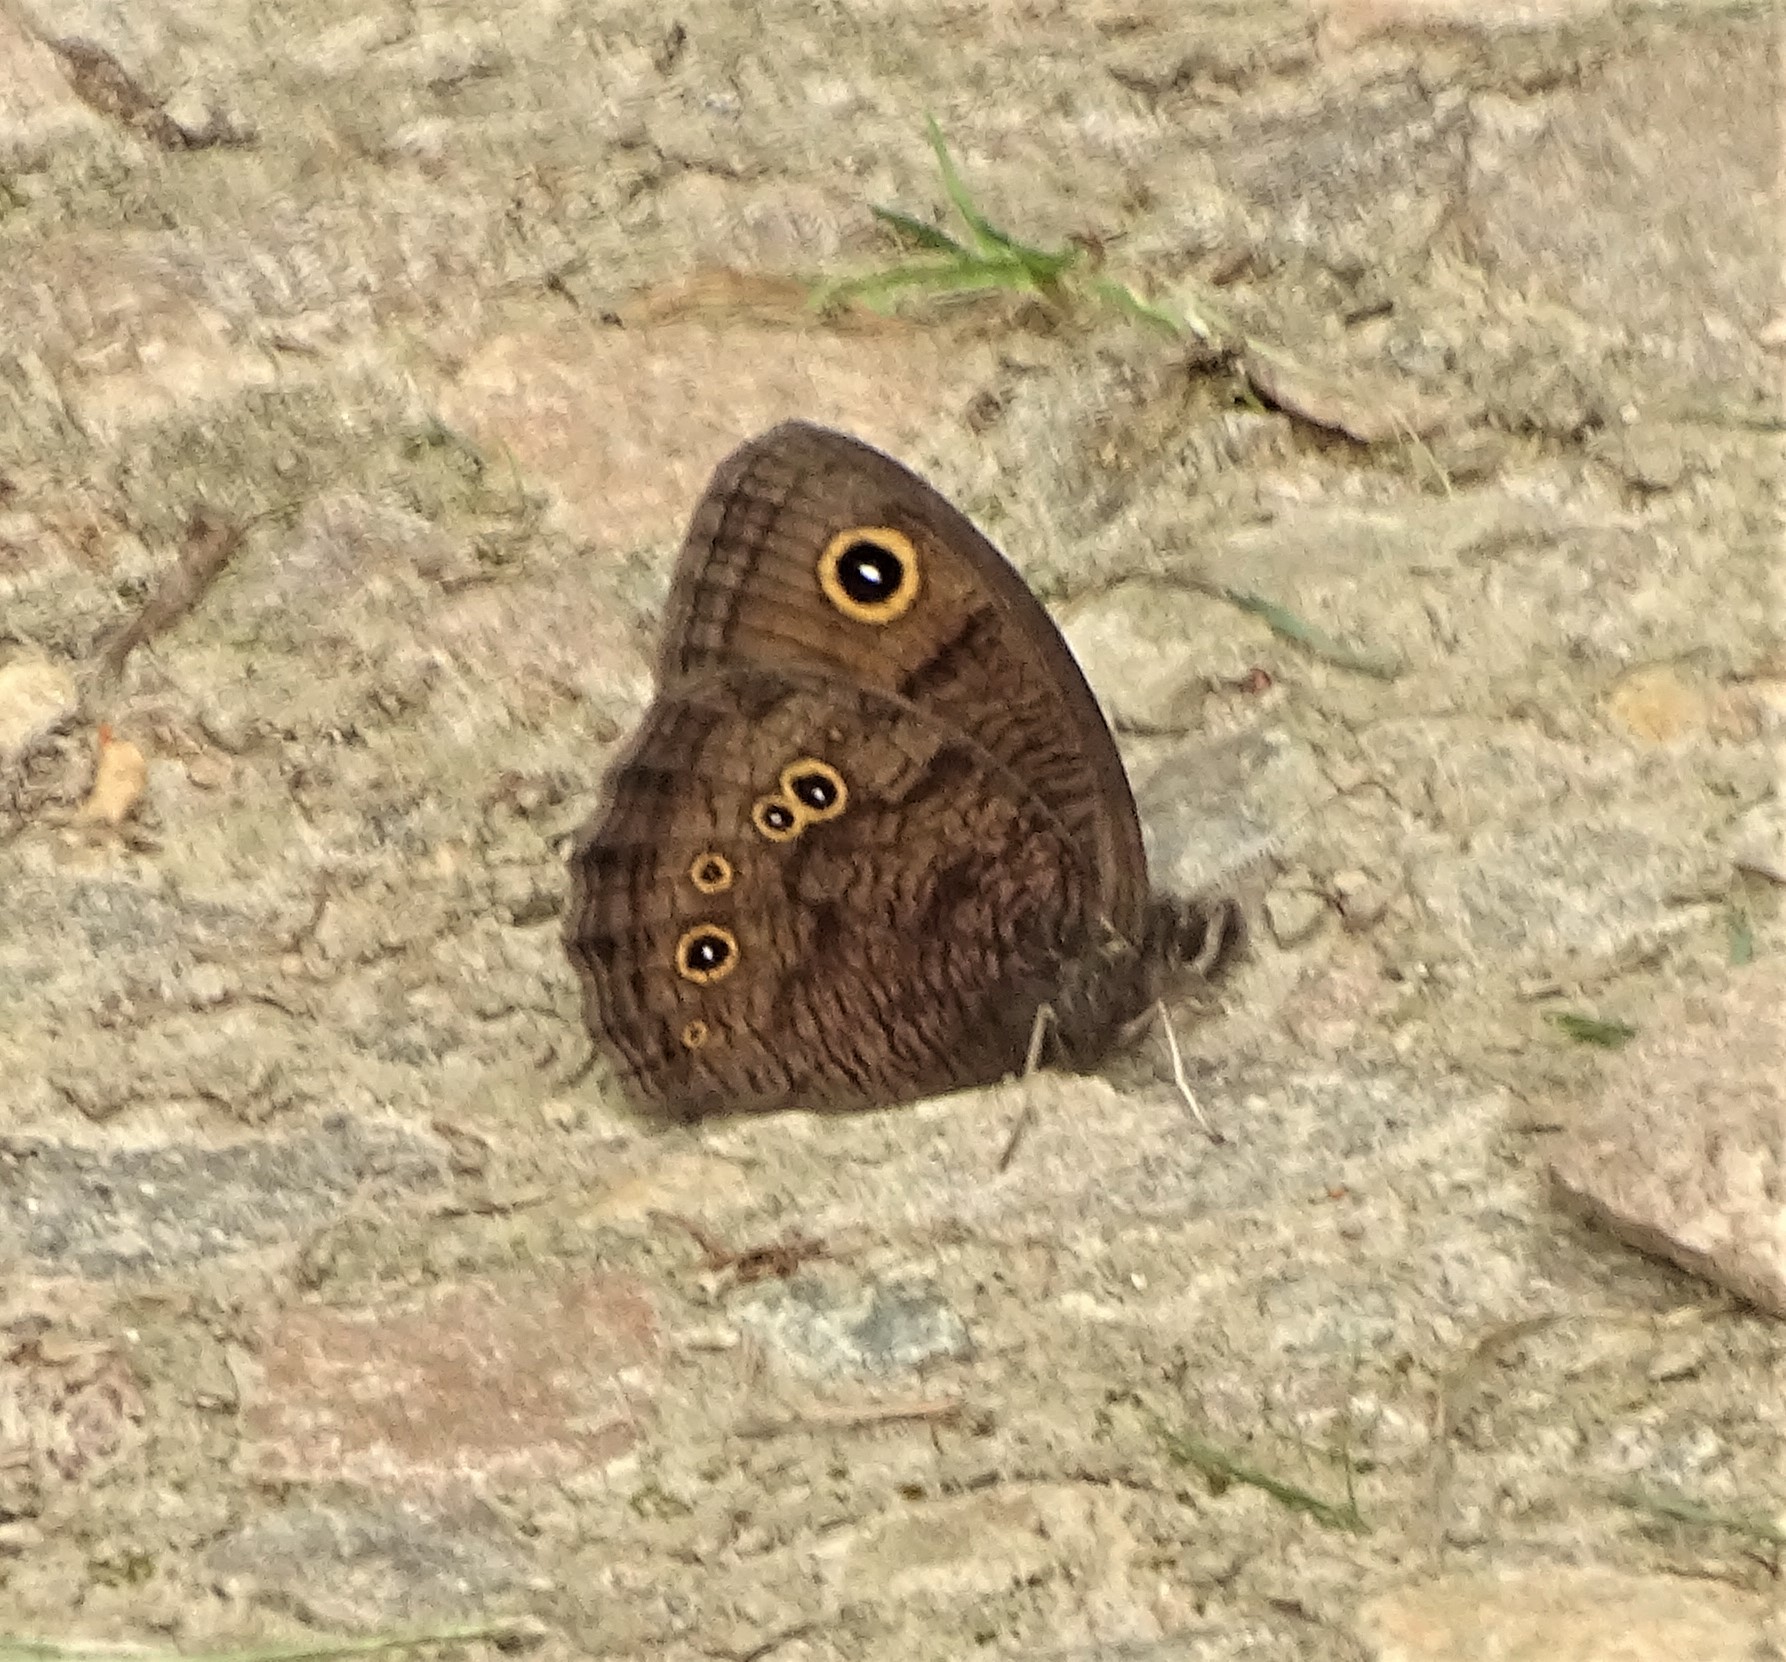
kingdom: Animalia
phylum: Arthropoda
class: Insecta
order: Lepidoptera
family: Nymphalidae
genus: Cercyonis
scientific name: Cercyonis pegala
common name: Common wood-nymph
